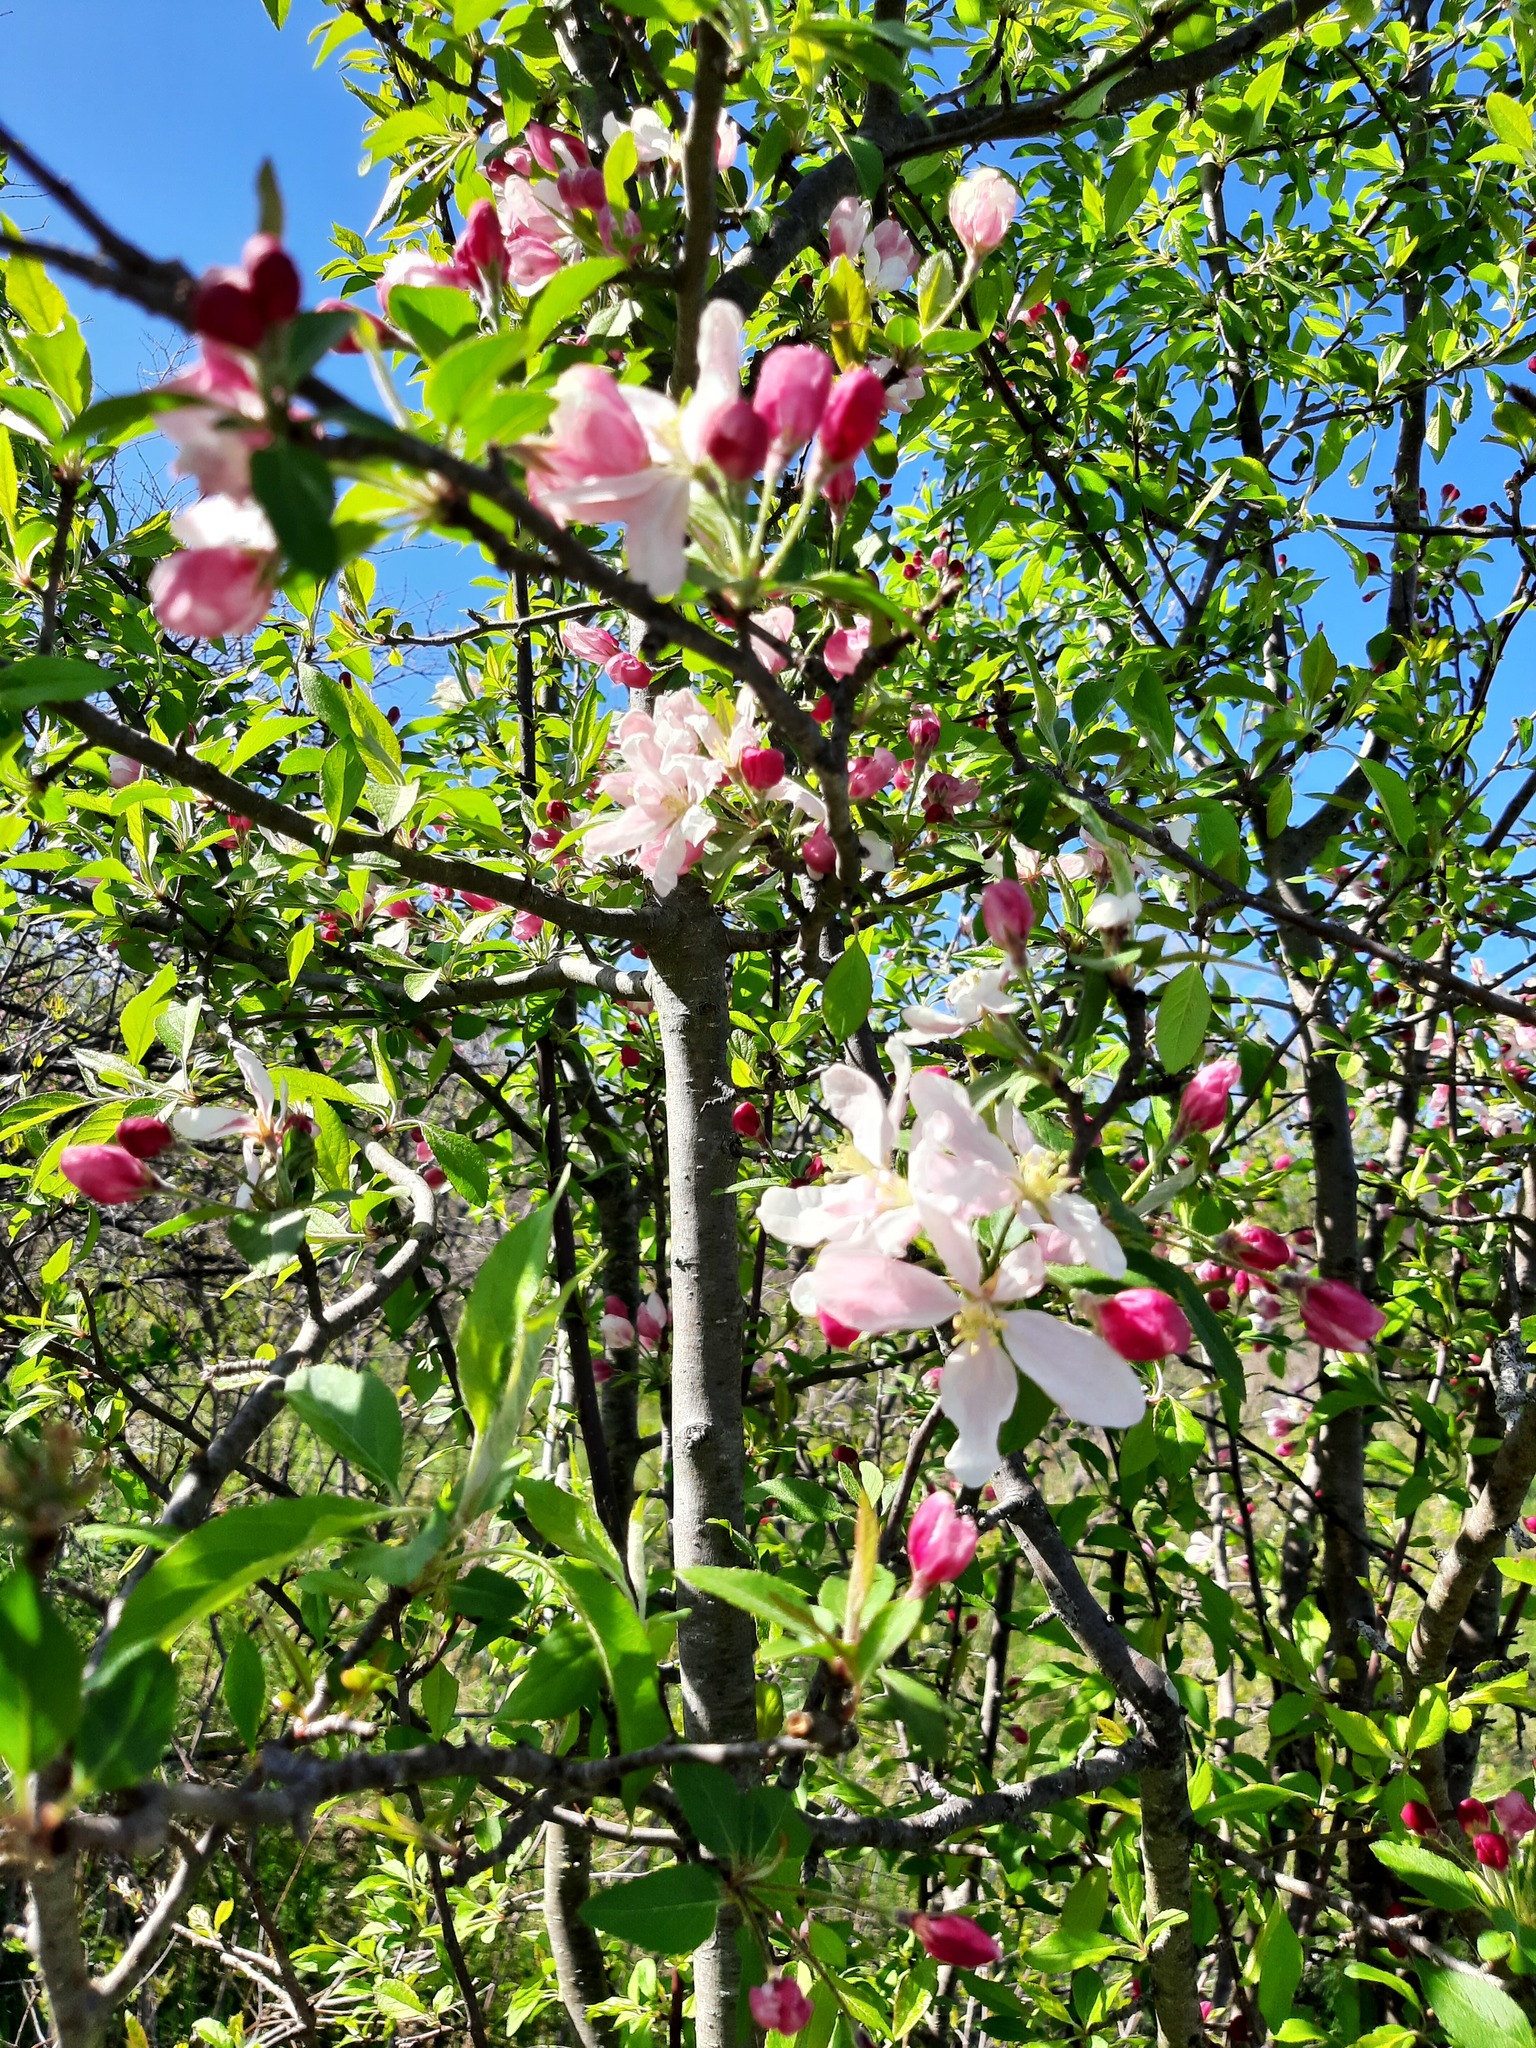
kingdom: Plantae
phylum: Tracheophyta
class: Magnoliopsida
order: Rosales
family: Rosaceae
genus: Malus
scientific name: Malus domestica
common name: Apple
